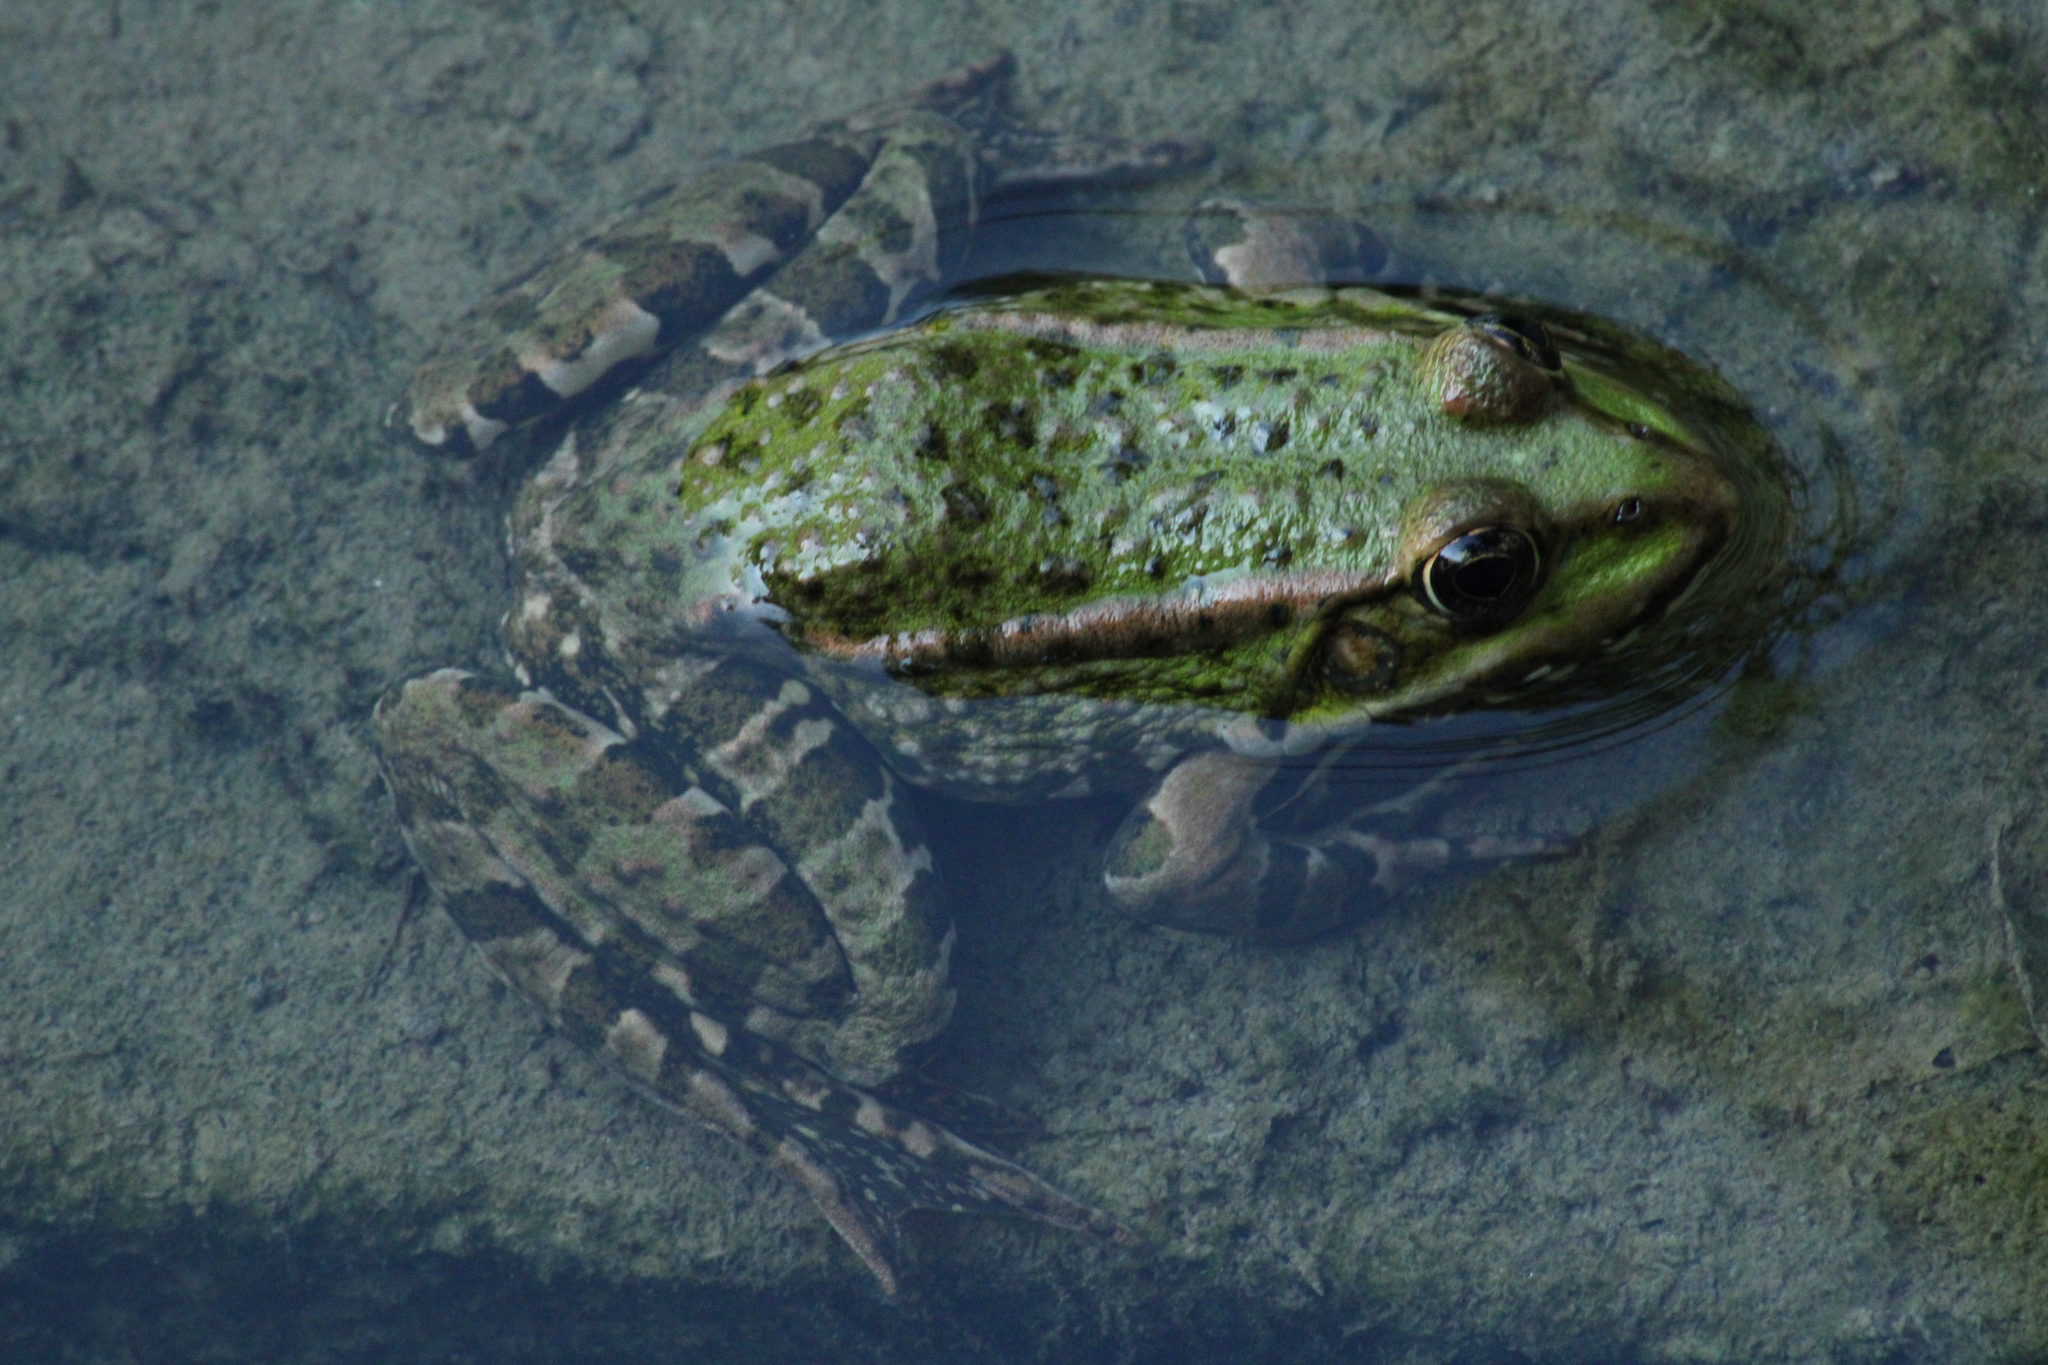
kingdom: Animalia
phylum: Chordata
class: Amphibia
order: Anura
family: Ranidae
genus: Pelophylax
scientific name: Pelophylax
